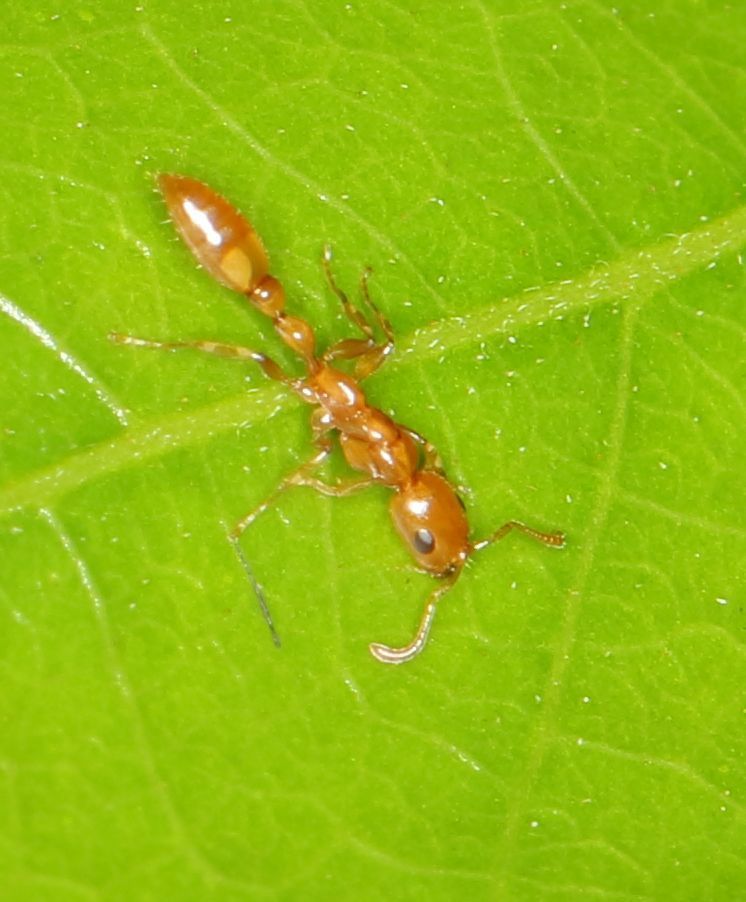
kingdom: Animalia
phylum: Arthropoda
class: Insecta
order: Hymenoptera
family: Formicidae
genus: Tetraponera
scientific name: Tetraponera emeryi
